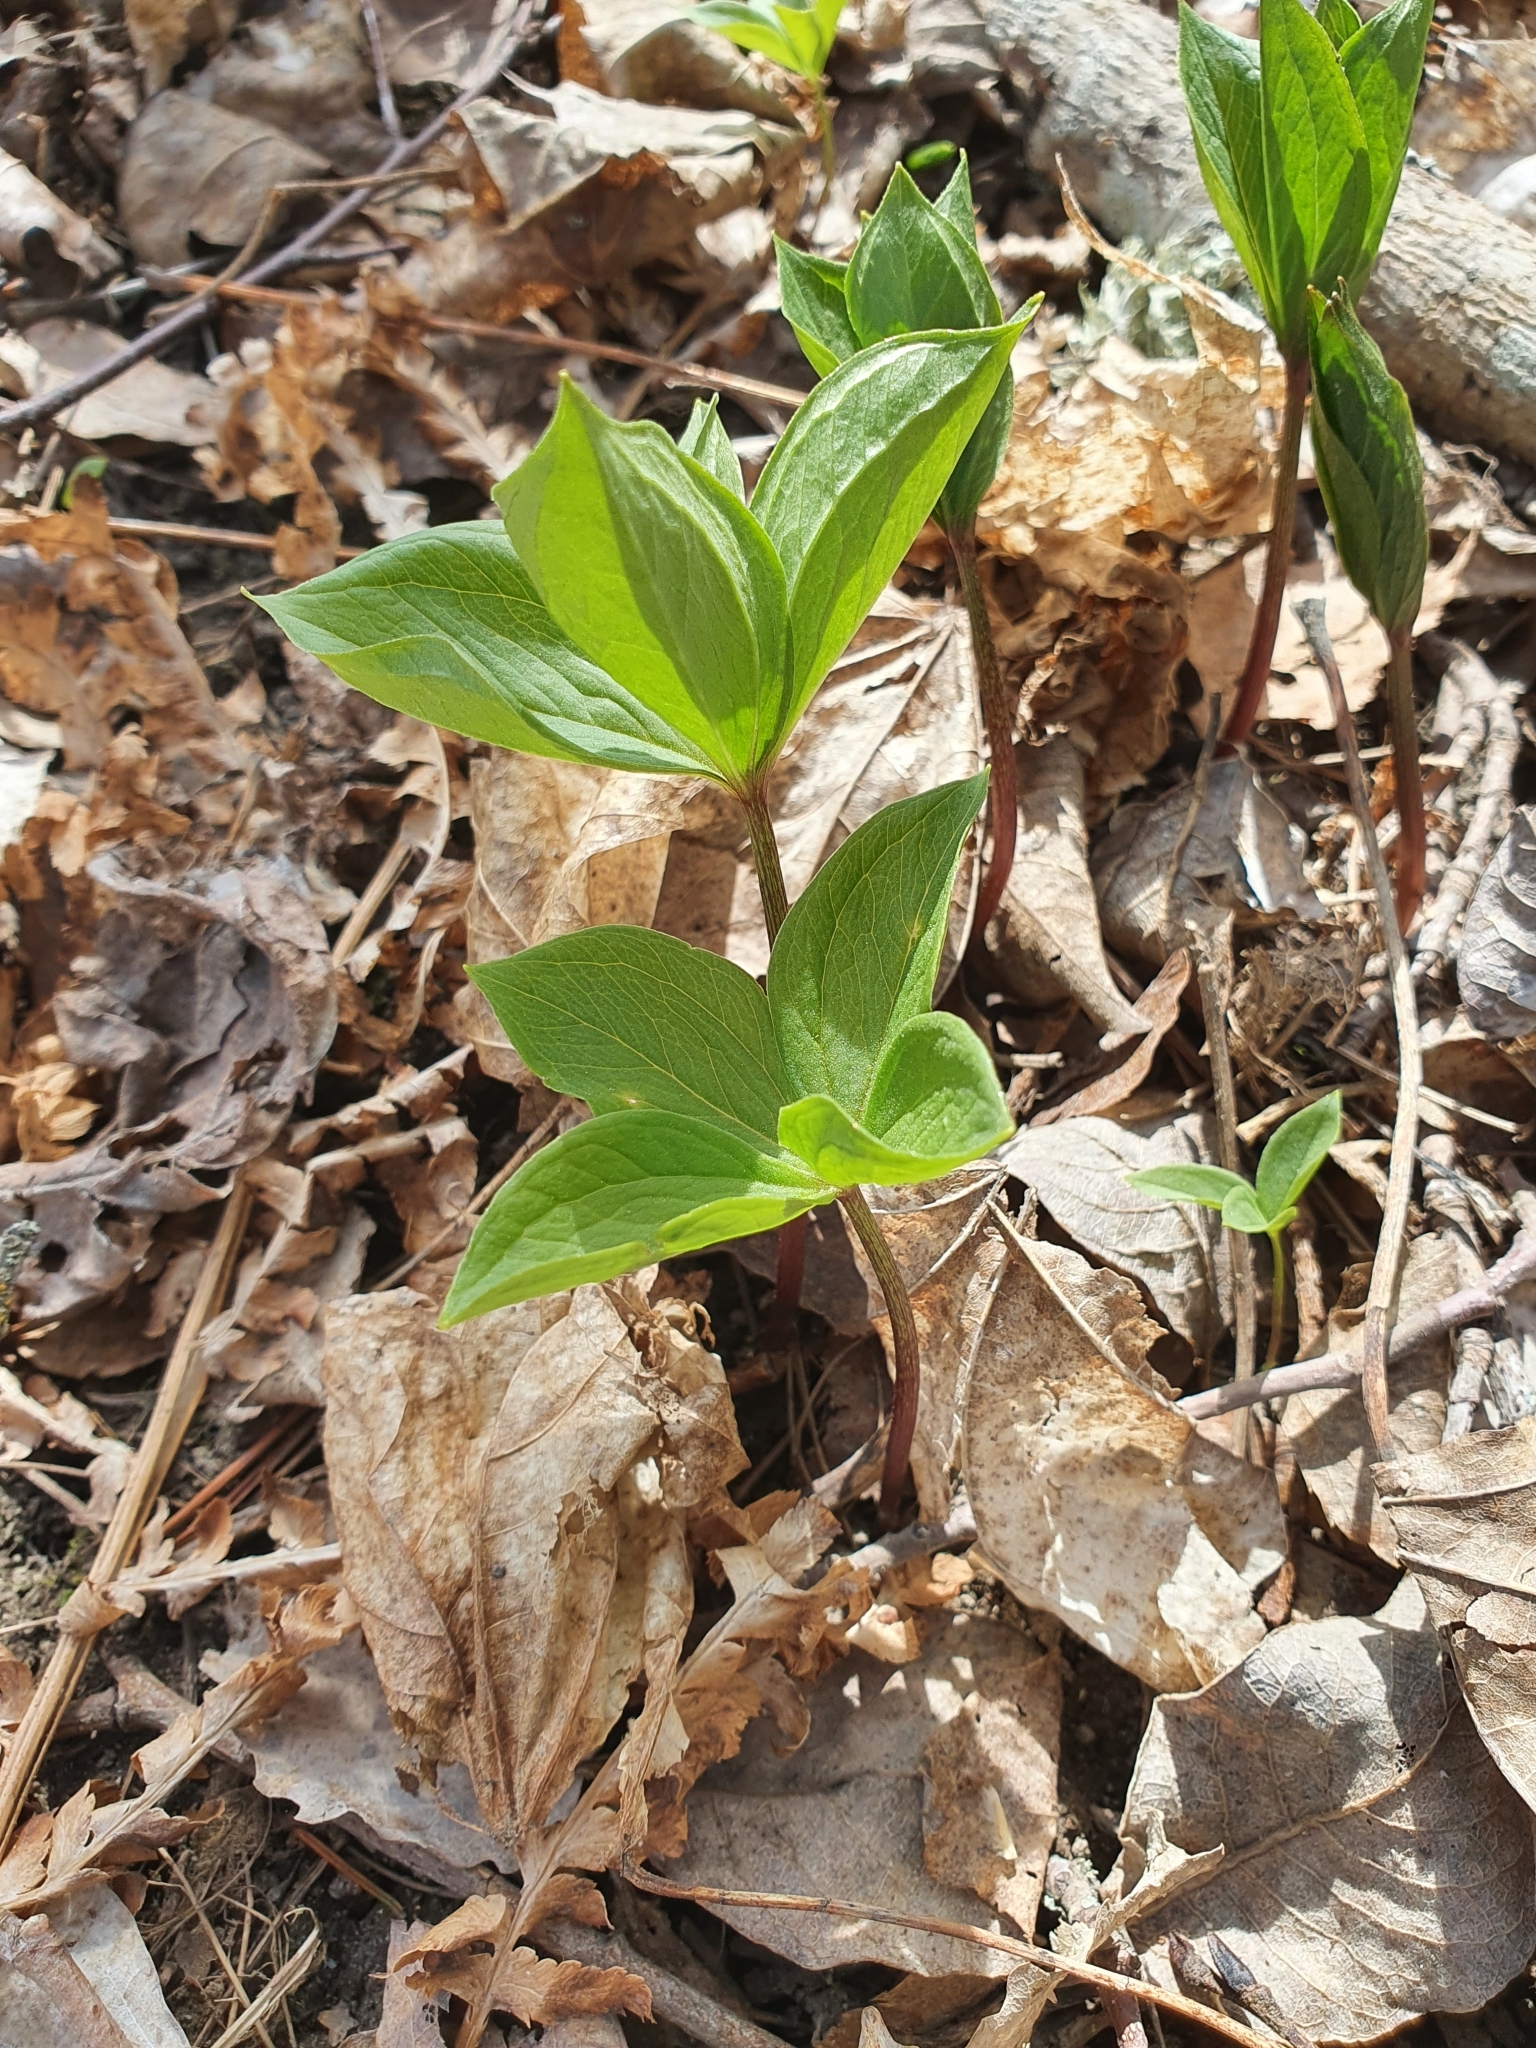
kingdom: Plantae
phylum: Tracheophyta
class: Liliopsida
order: Liliales
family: Melanthiaceae
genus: Paris
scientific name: Paris quadrifolia
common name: Herb-paris
